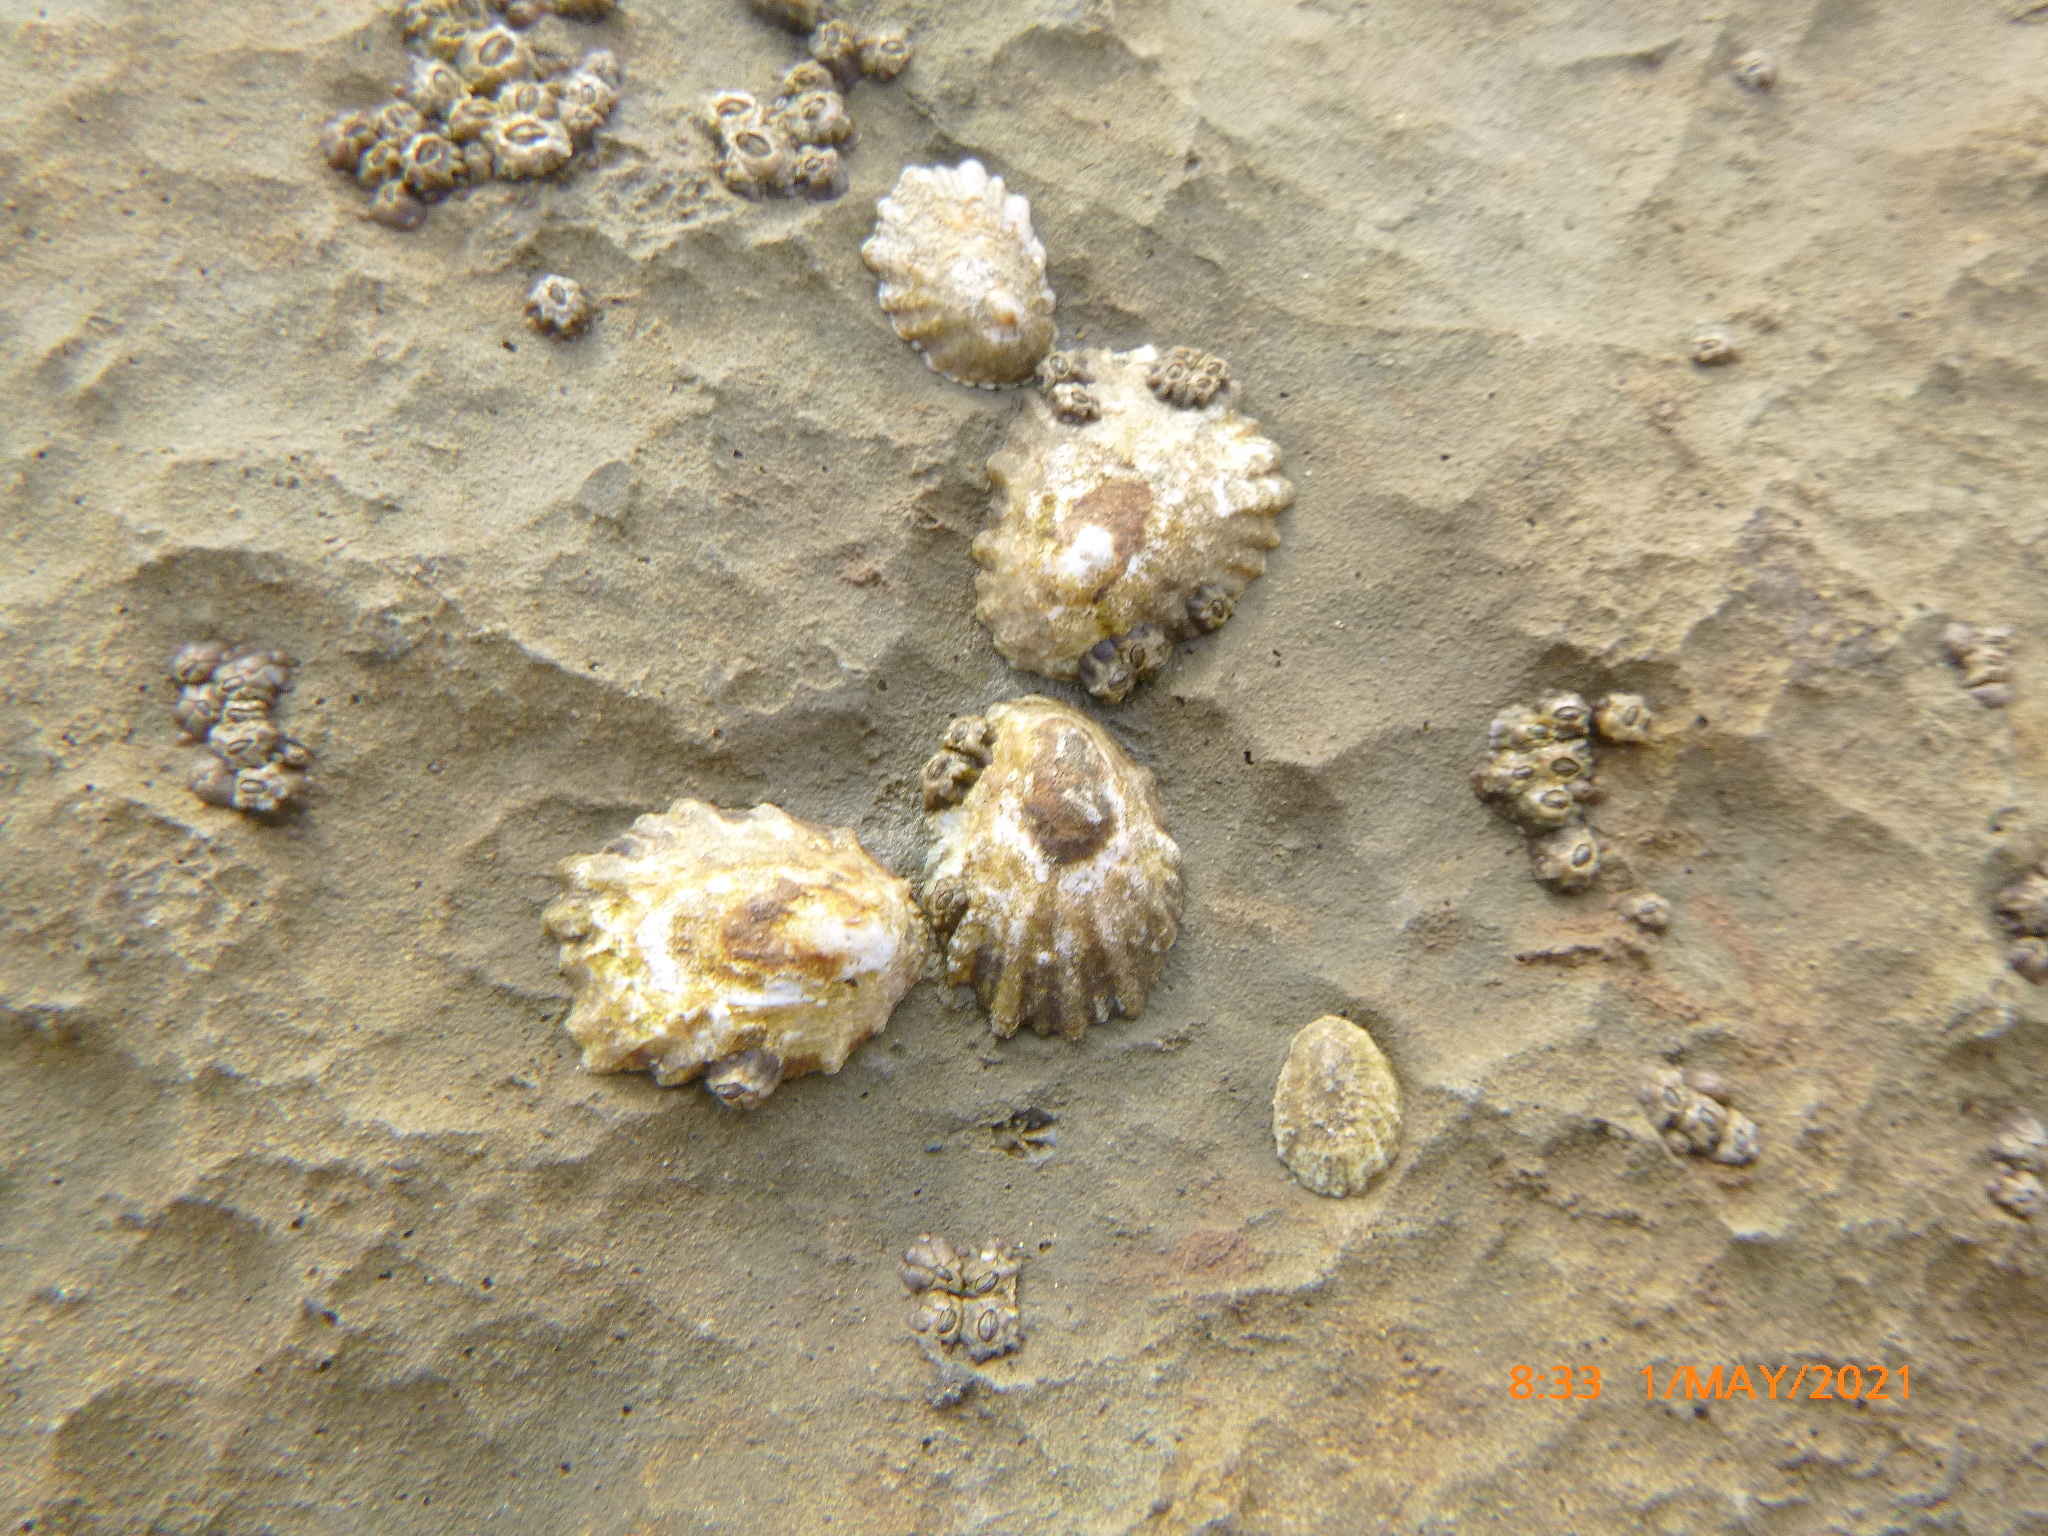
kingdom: Animalia
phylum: Mollusca
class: Gastropoda
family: Lottiidae
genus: Lottia
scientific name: Lottia scabra
